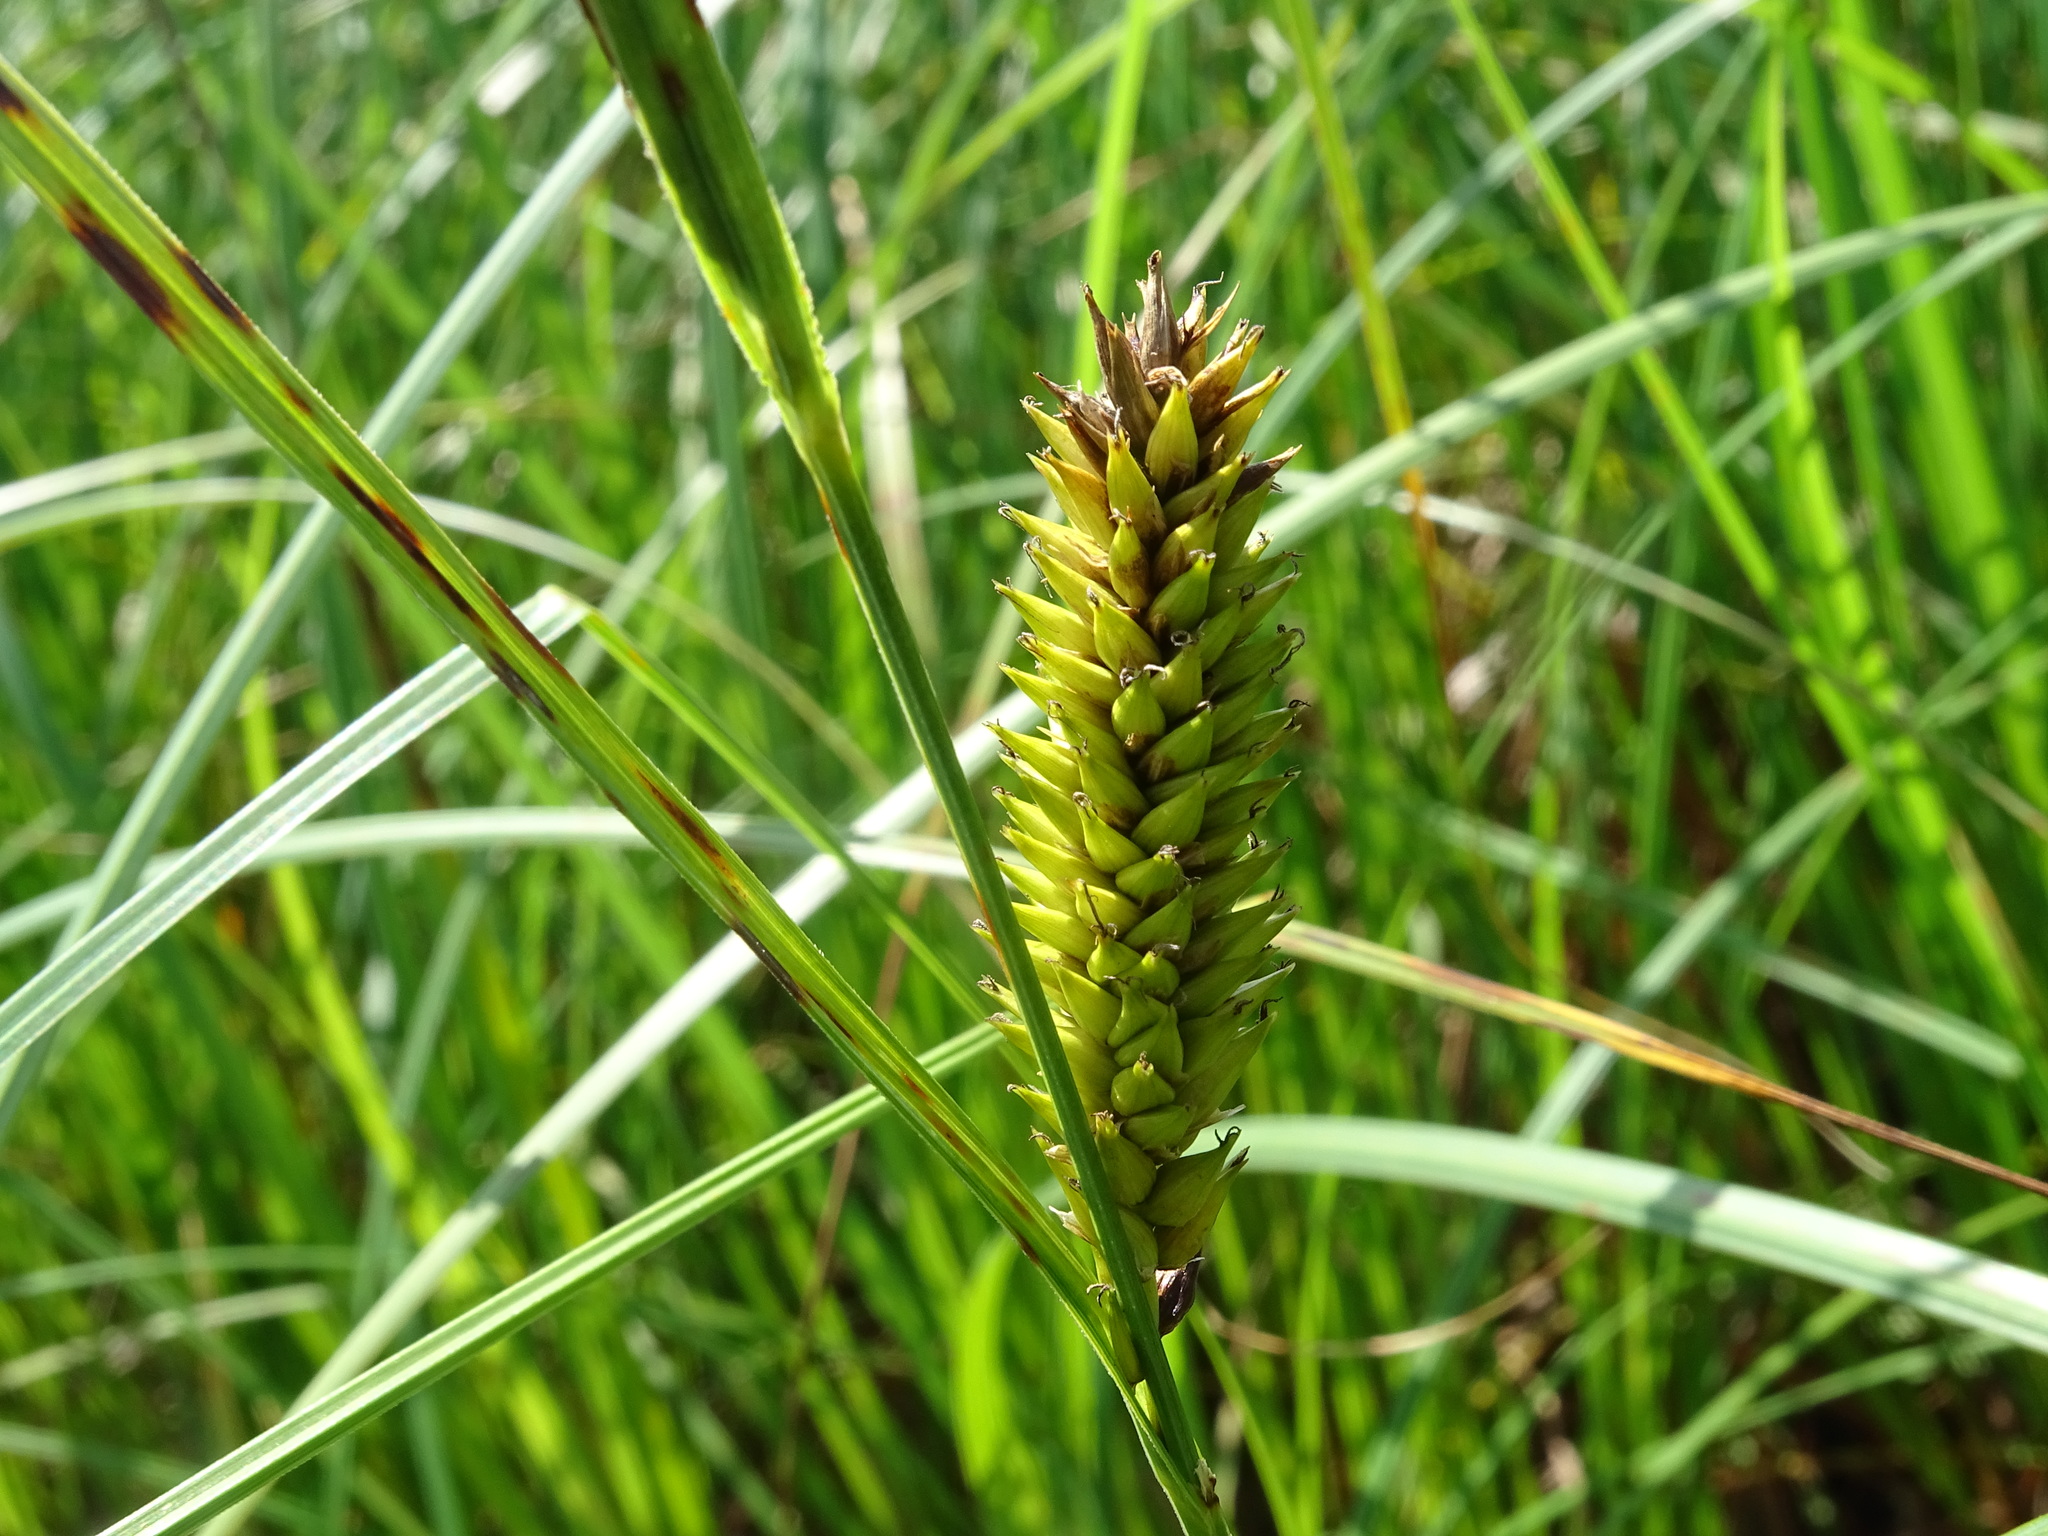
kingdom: Plantae
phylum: Tracheophyta
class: Liliopsida
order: Poales
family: Cyperaceae
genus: Carex
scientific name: Carex lacustris
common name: Common lake sedge
